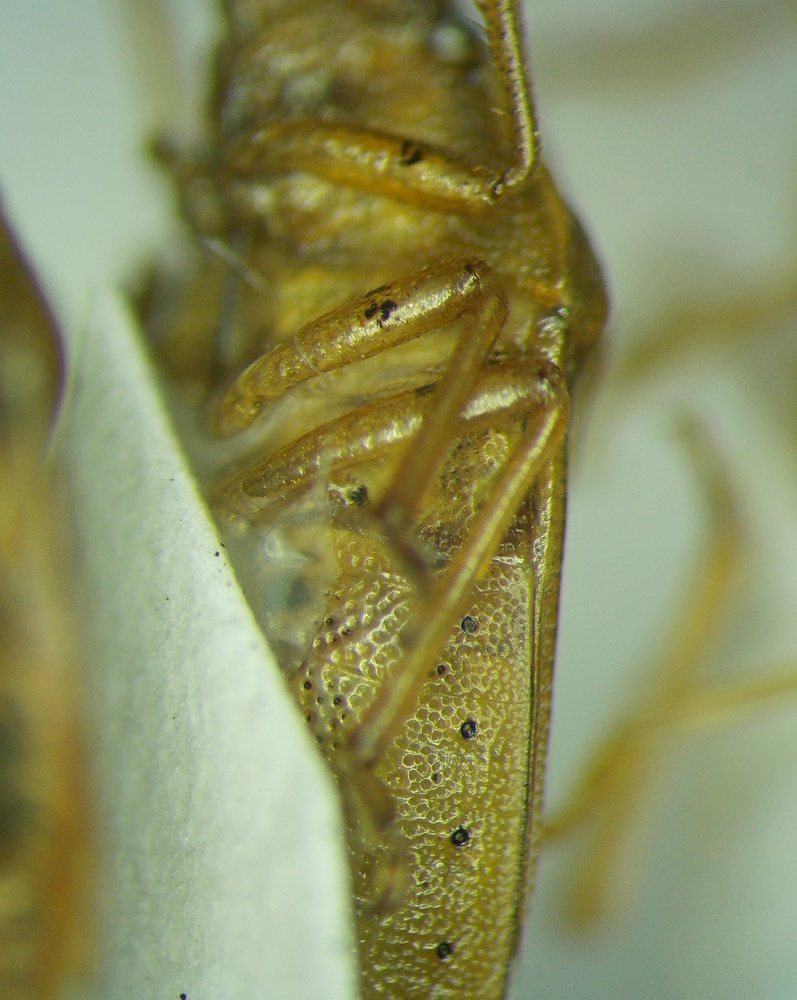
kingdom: Animalia
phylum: Arthropoda
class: Insecta
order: Hemiptera
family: Pentatomidae
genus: Aelia
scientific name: Aelia acuminata
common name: Bishop's mitre
